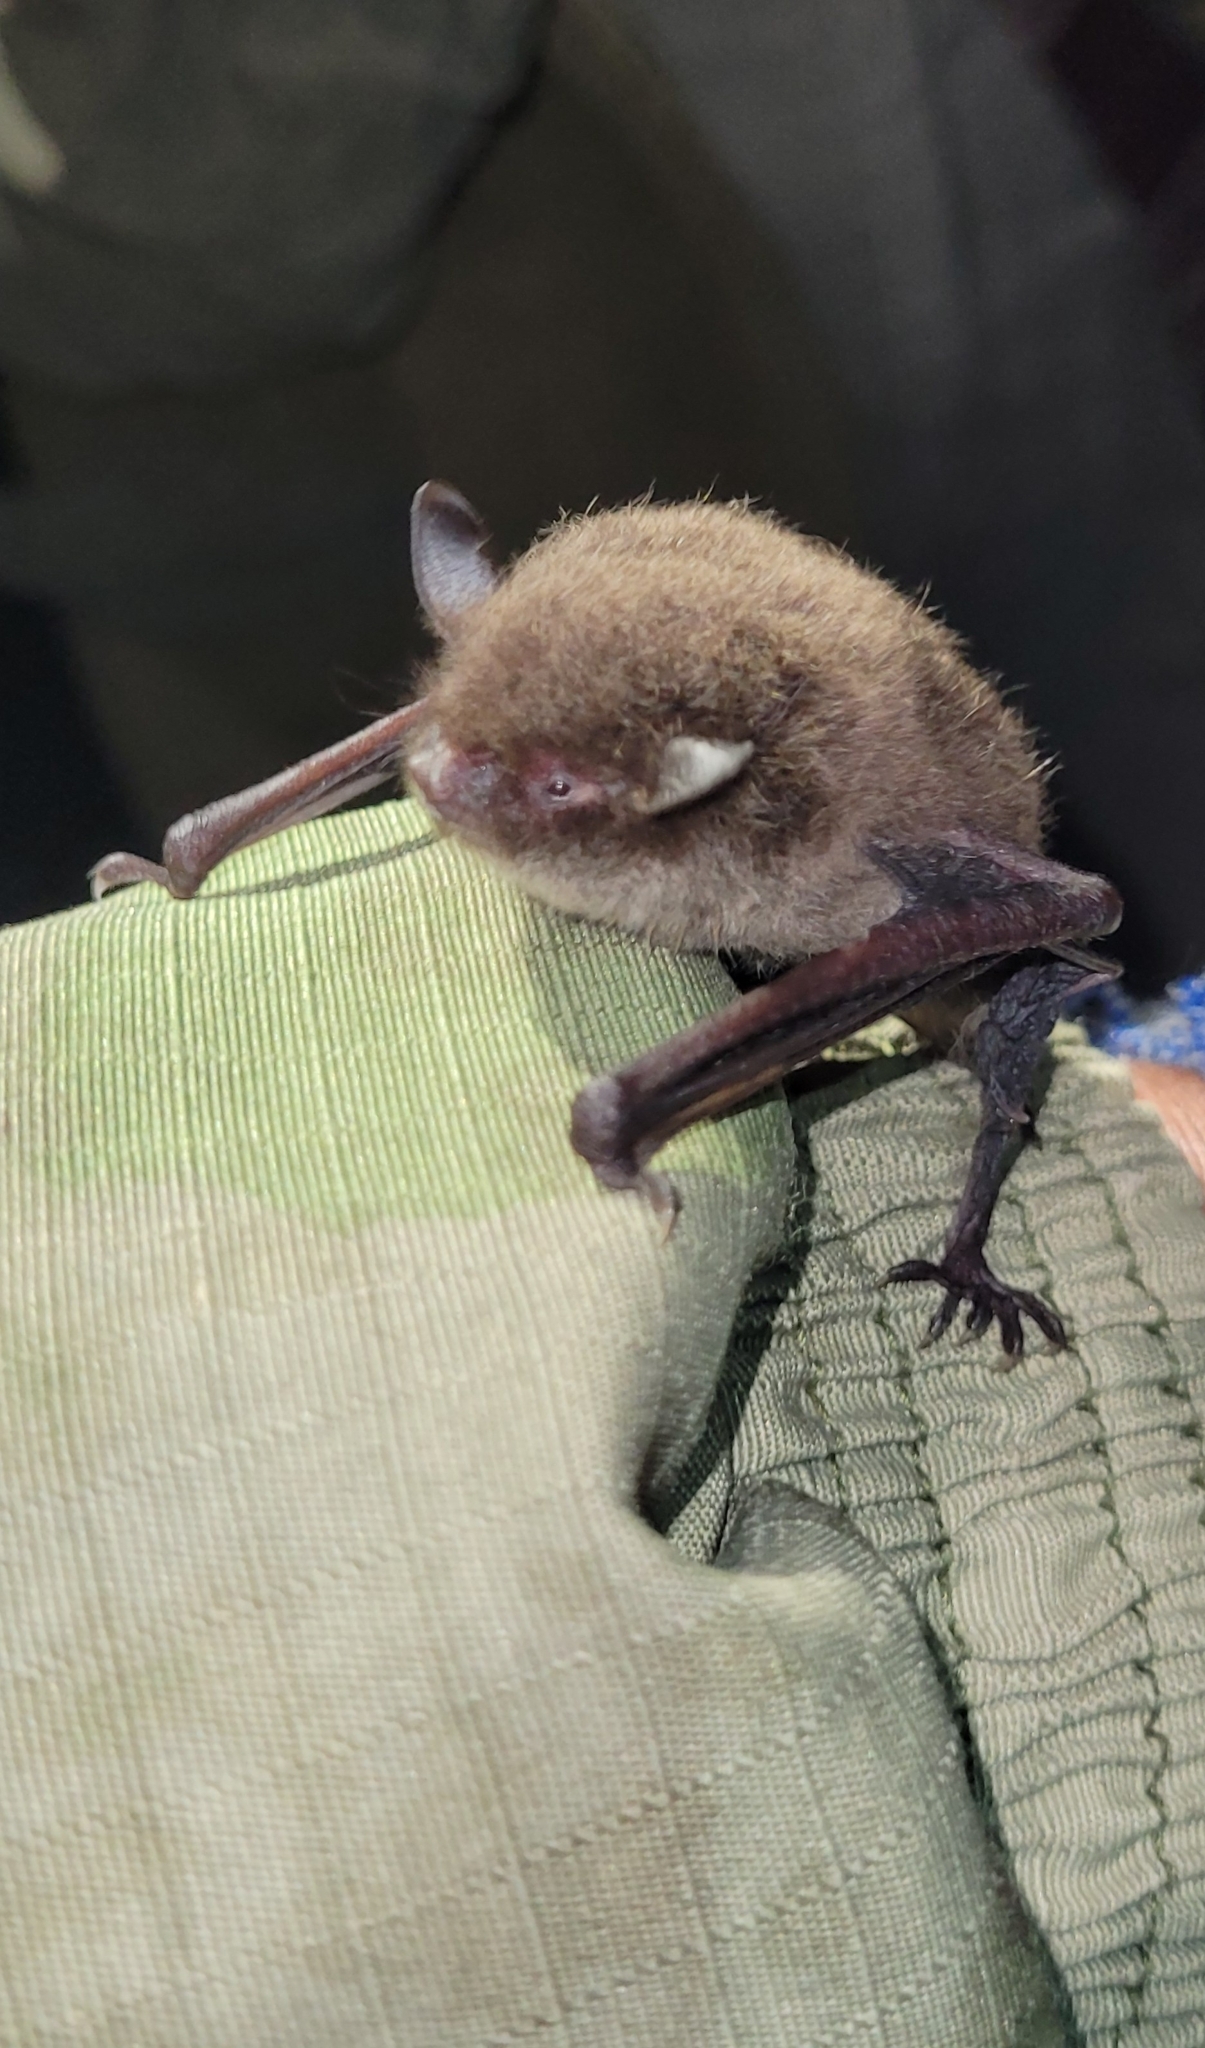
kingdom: Animalia
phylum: Chordata
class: Mammalia
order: Chiroptera
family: Vespertilionidae
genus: Myotis
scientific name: Myotis petax
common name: Russian myotis
